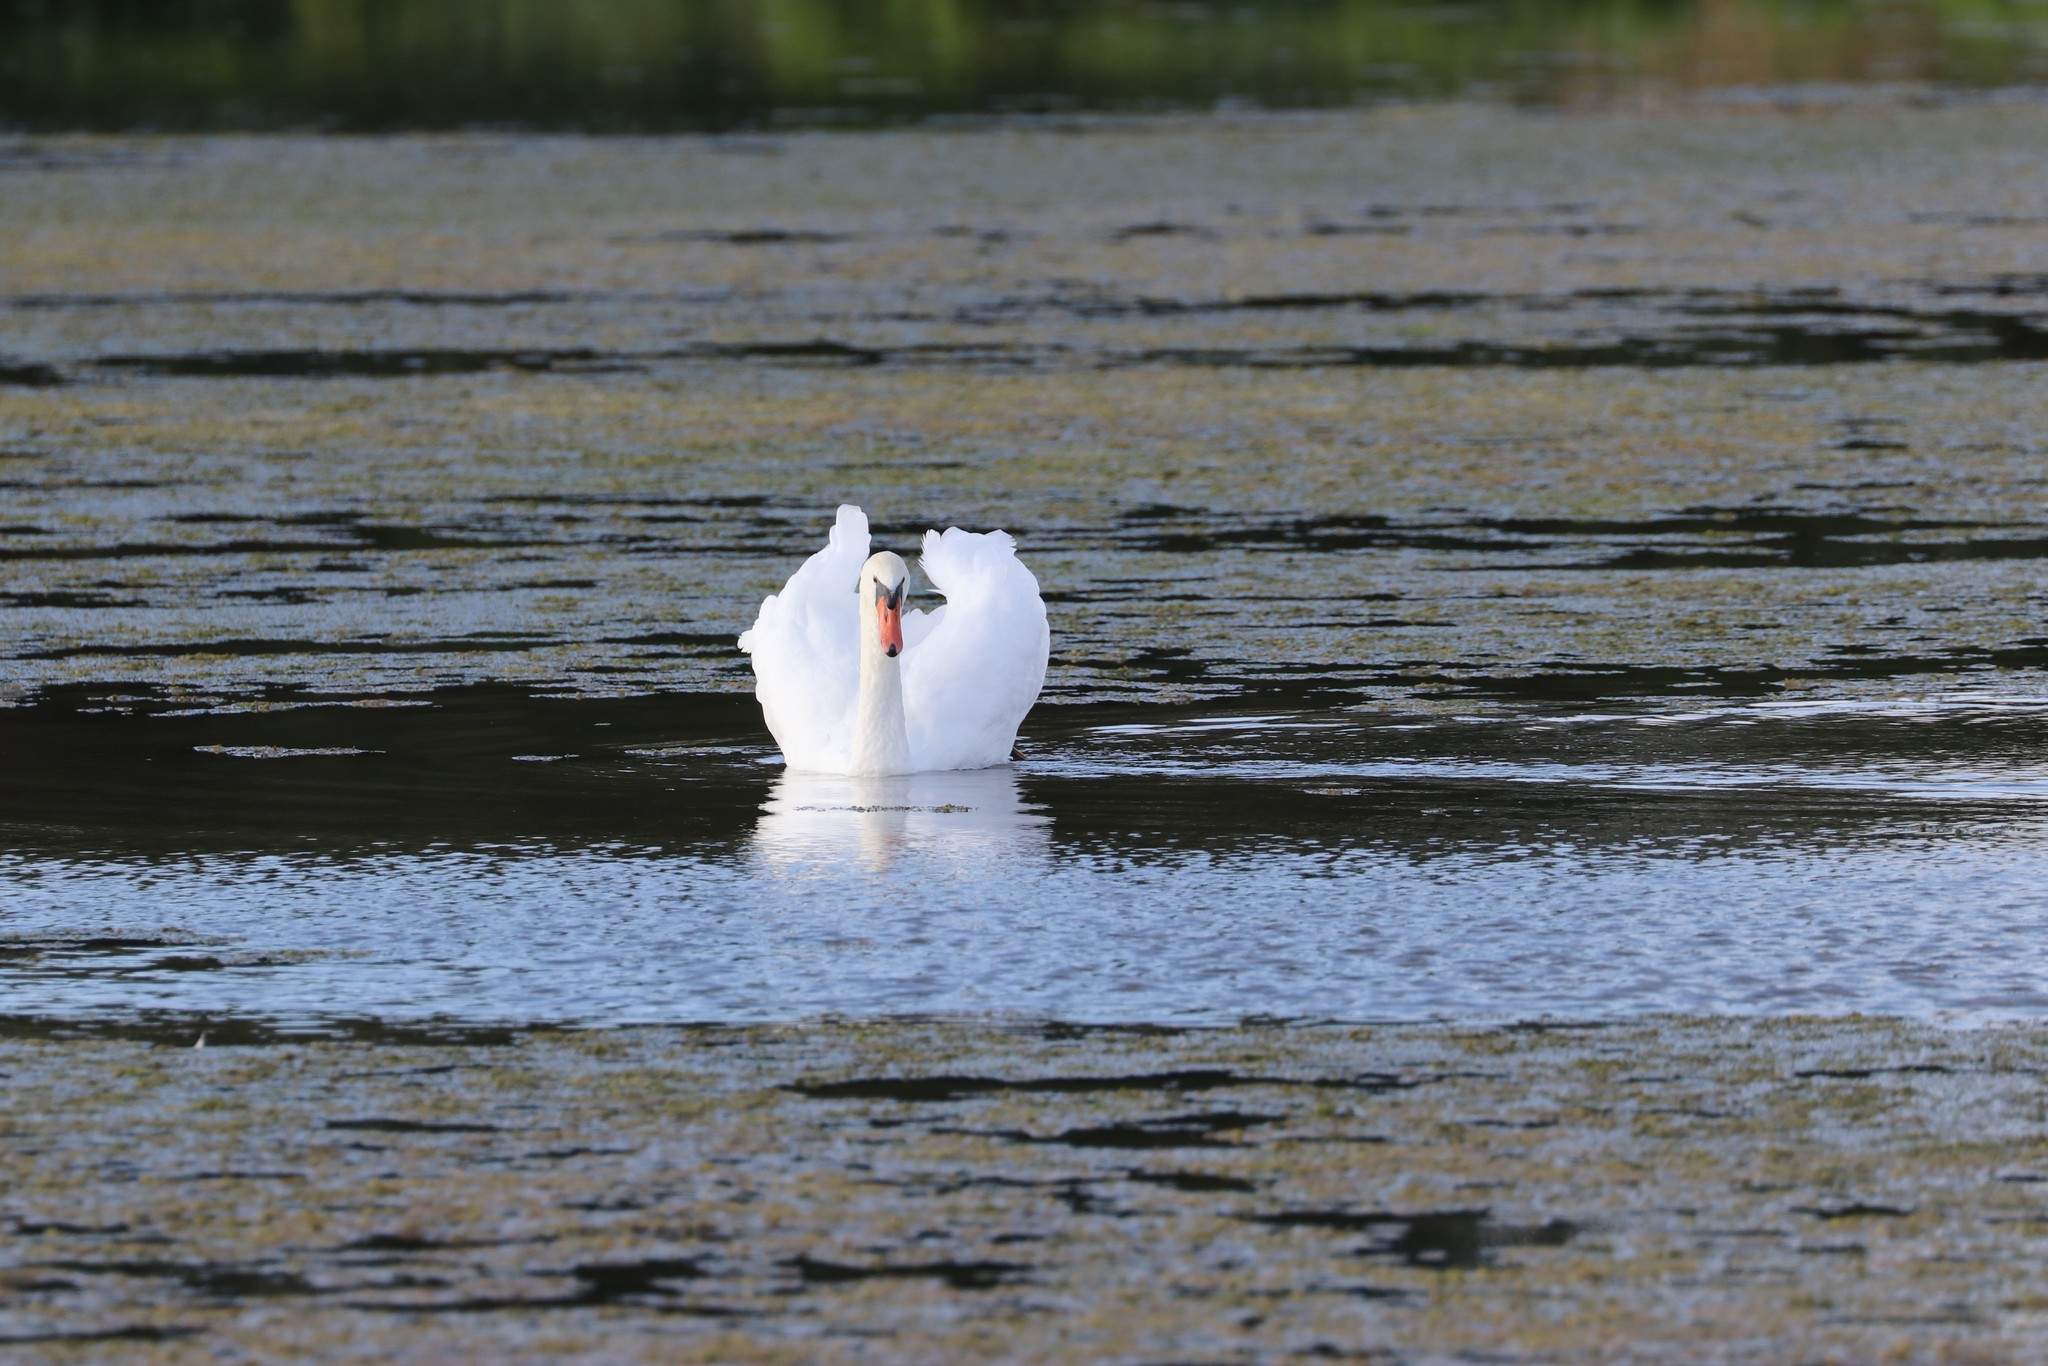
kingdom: Animalia
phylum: Chordata
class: Aves
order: Anseriformes
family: Anatidae
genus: Cygnus
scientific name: Cygnus olor
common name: Mute swan
